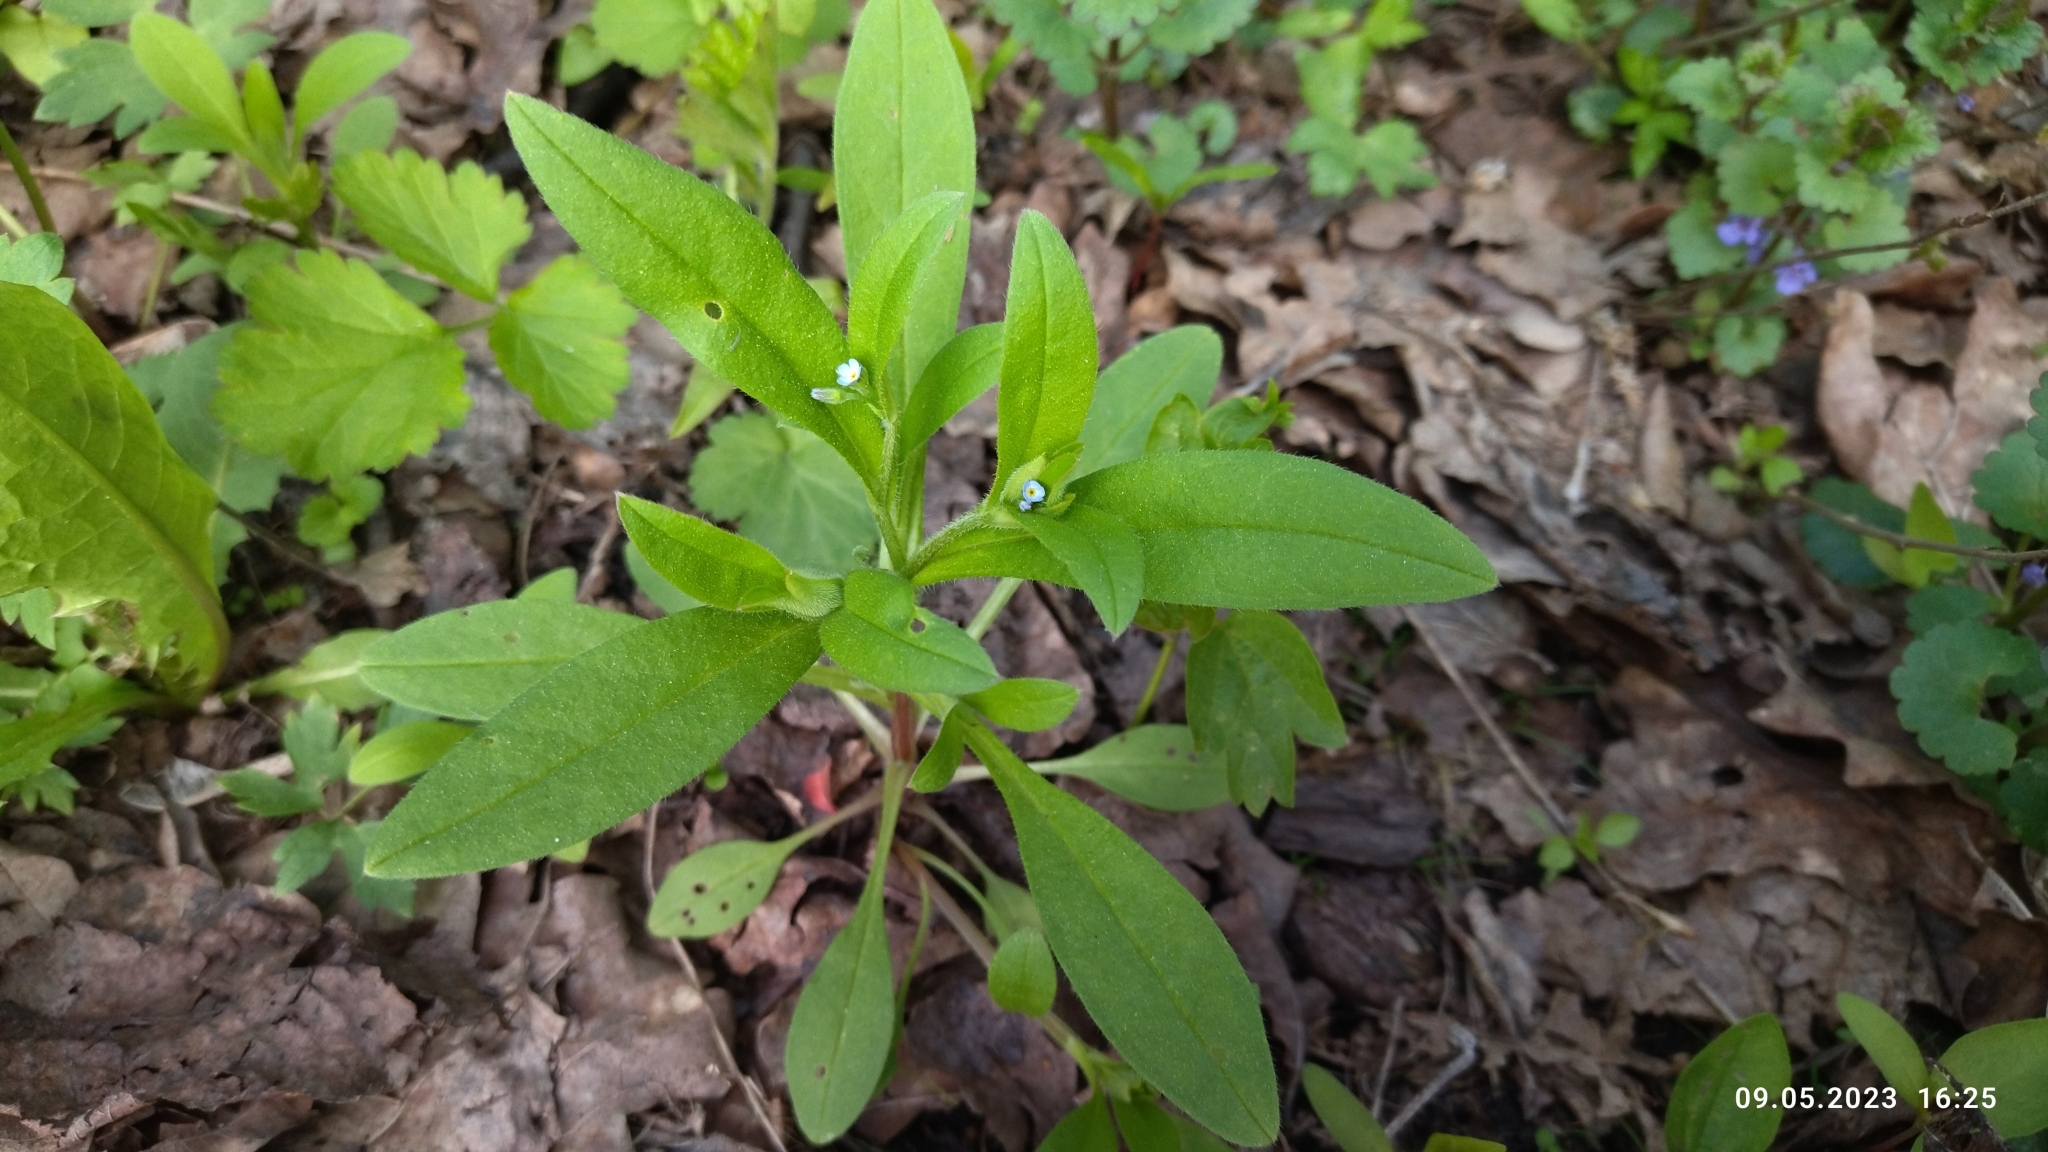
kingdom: Plantae
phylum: Tracheophyta
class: Magnoliopsida
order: Boraginales
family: Boraginaceae
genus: Myosotis
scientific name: Myosotis sparsiflora
